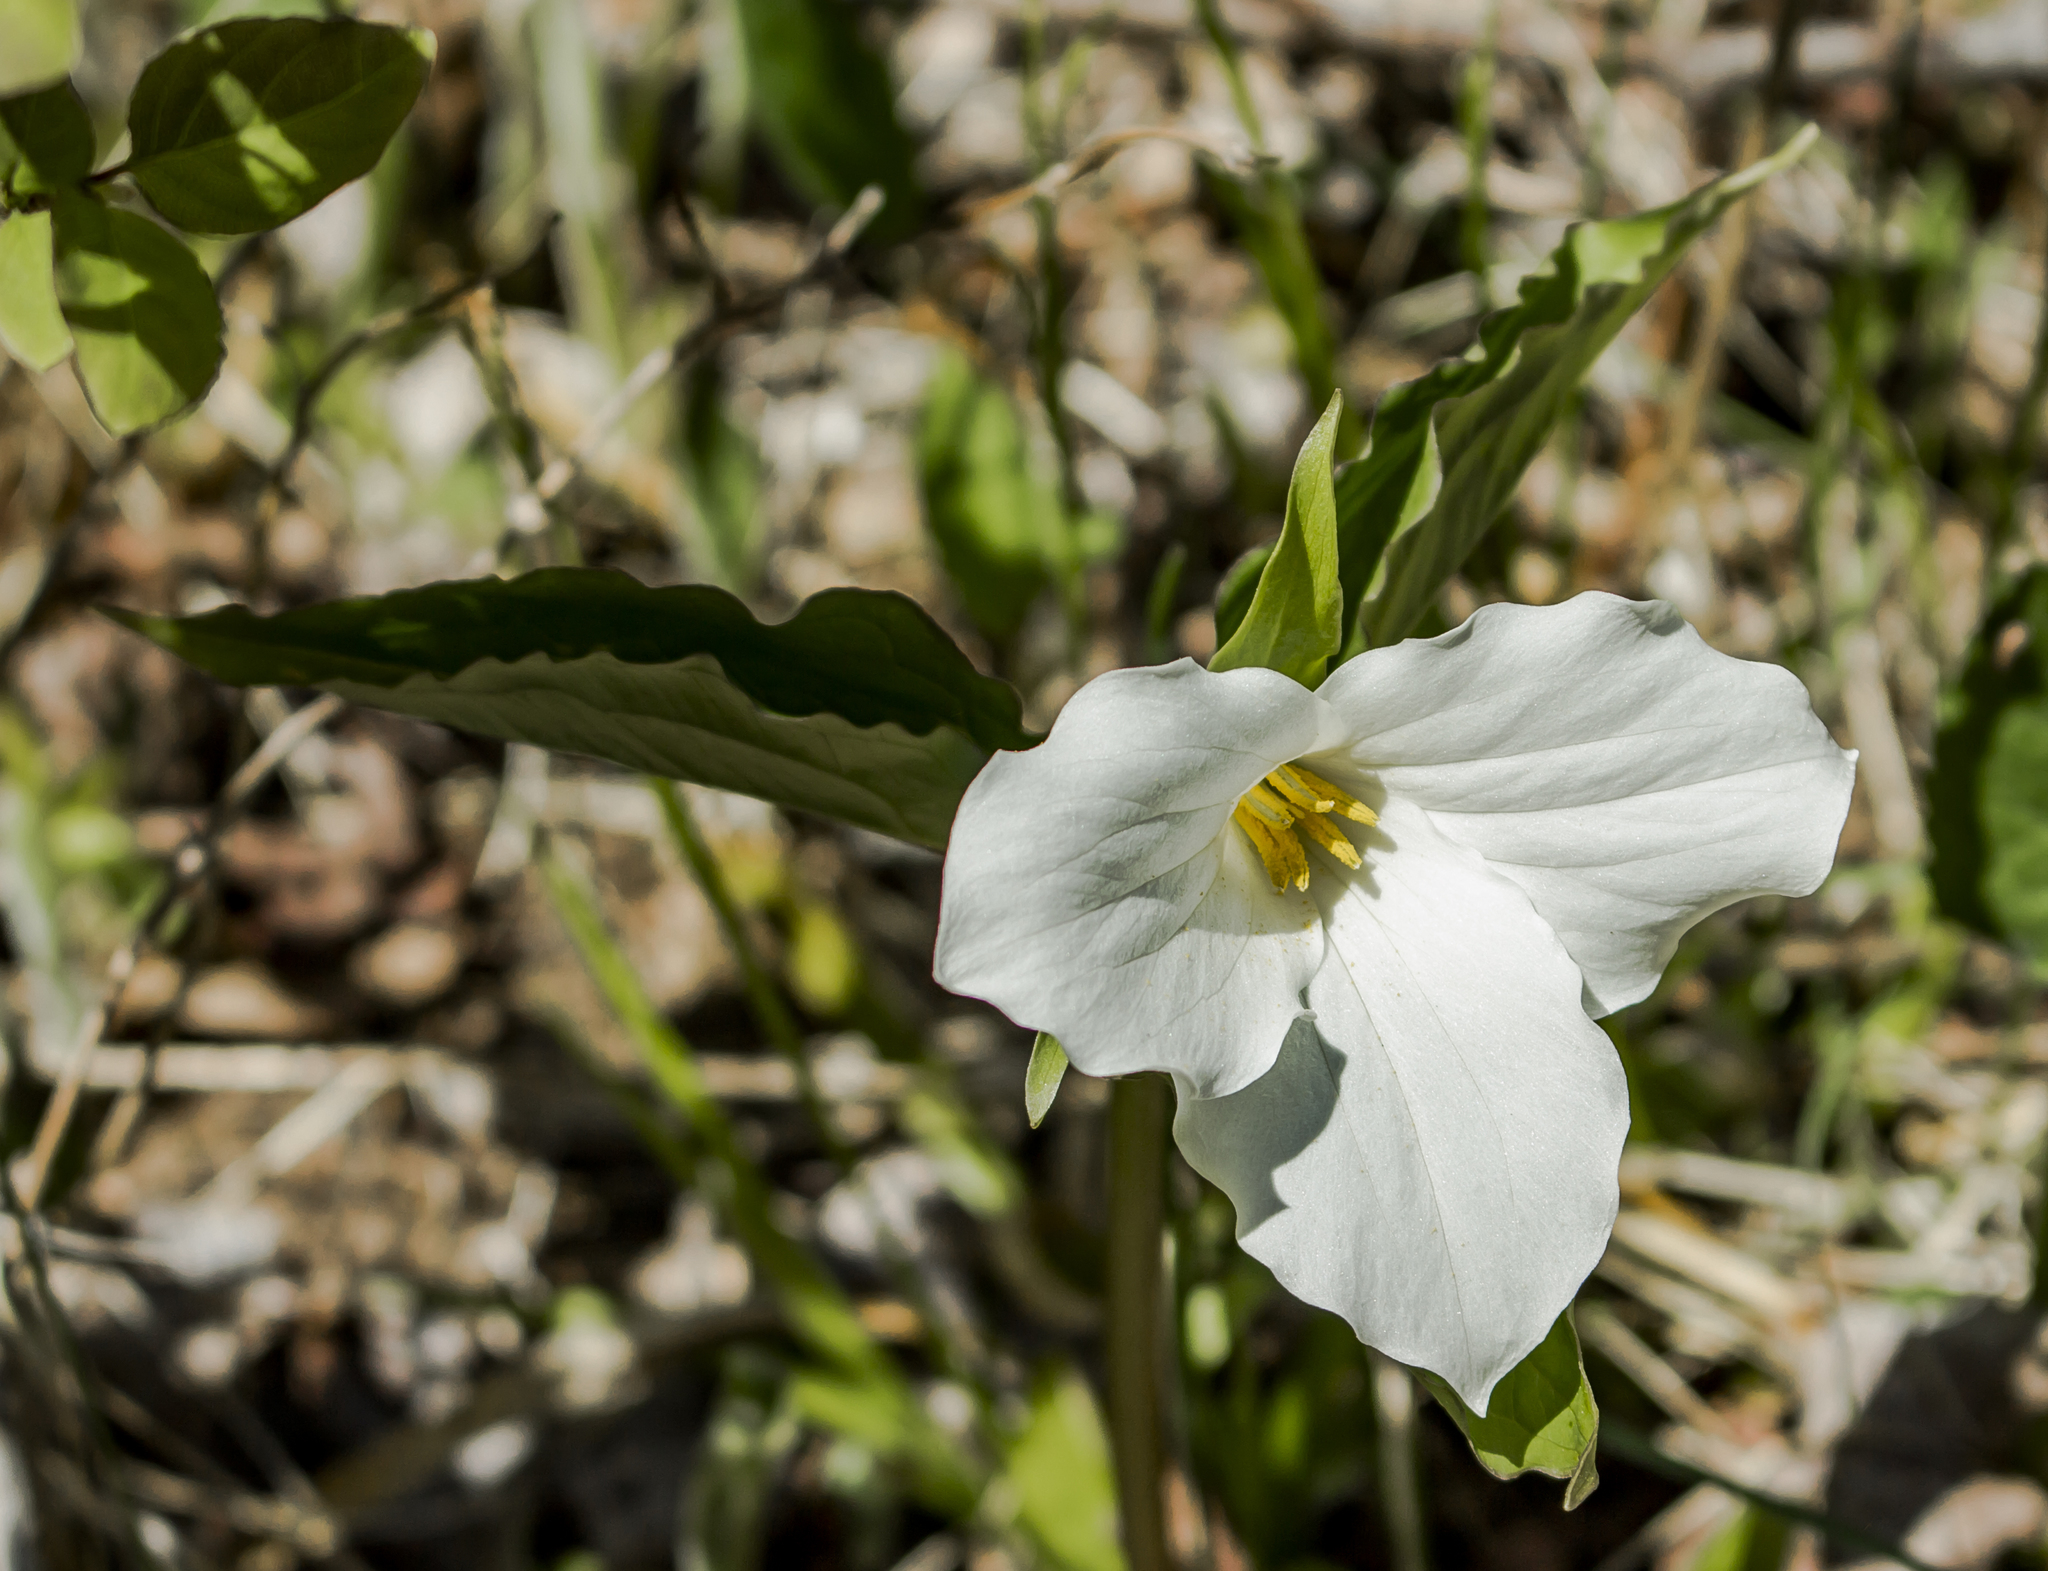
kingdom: Plantae
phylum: Tracheophyta
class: Liliopsida
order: Liliales
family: Melanthiaceae
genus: Trillium
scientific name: Trillium grandiflorum
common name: Great white trillium
